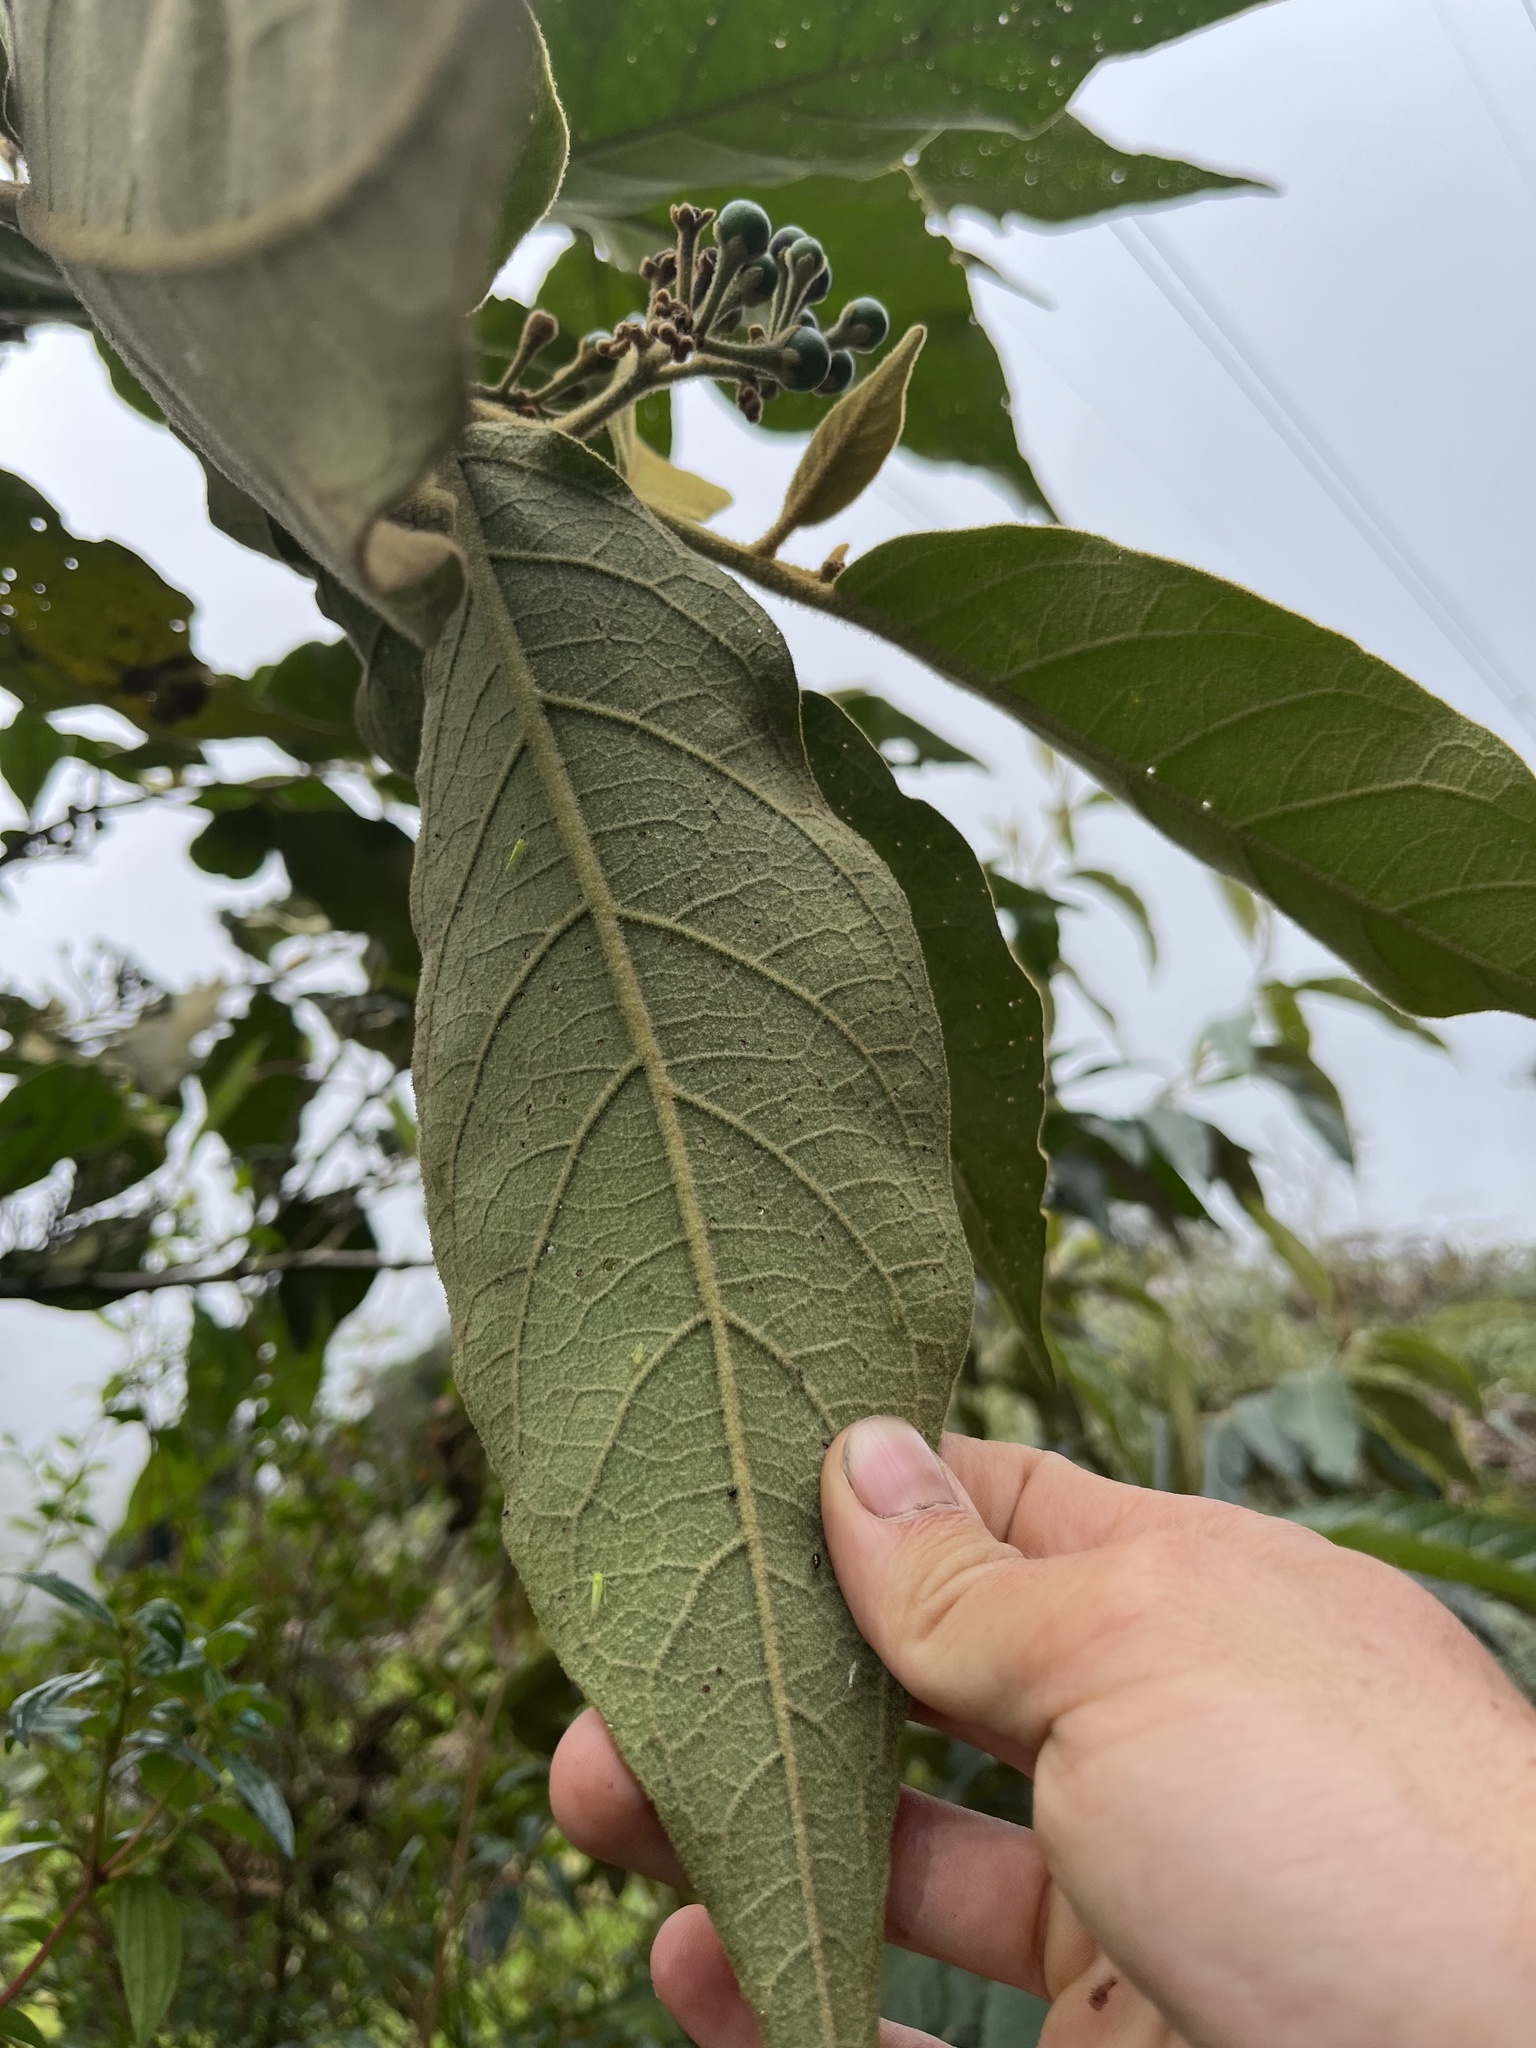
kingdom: Plantae
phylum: Tracheophyta
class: Magnoliopsida
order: Solanales
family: Solanaceae
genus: Solanum
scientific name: Solanum asperolanatum
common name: Devil's-fig
